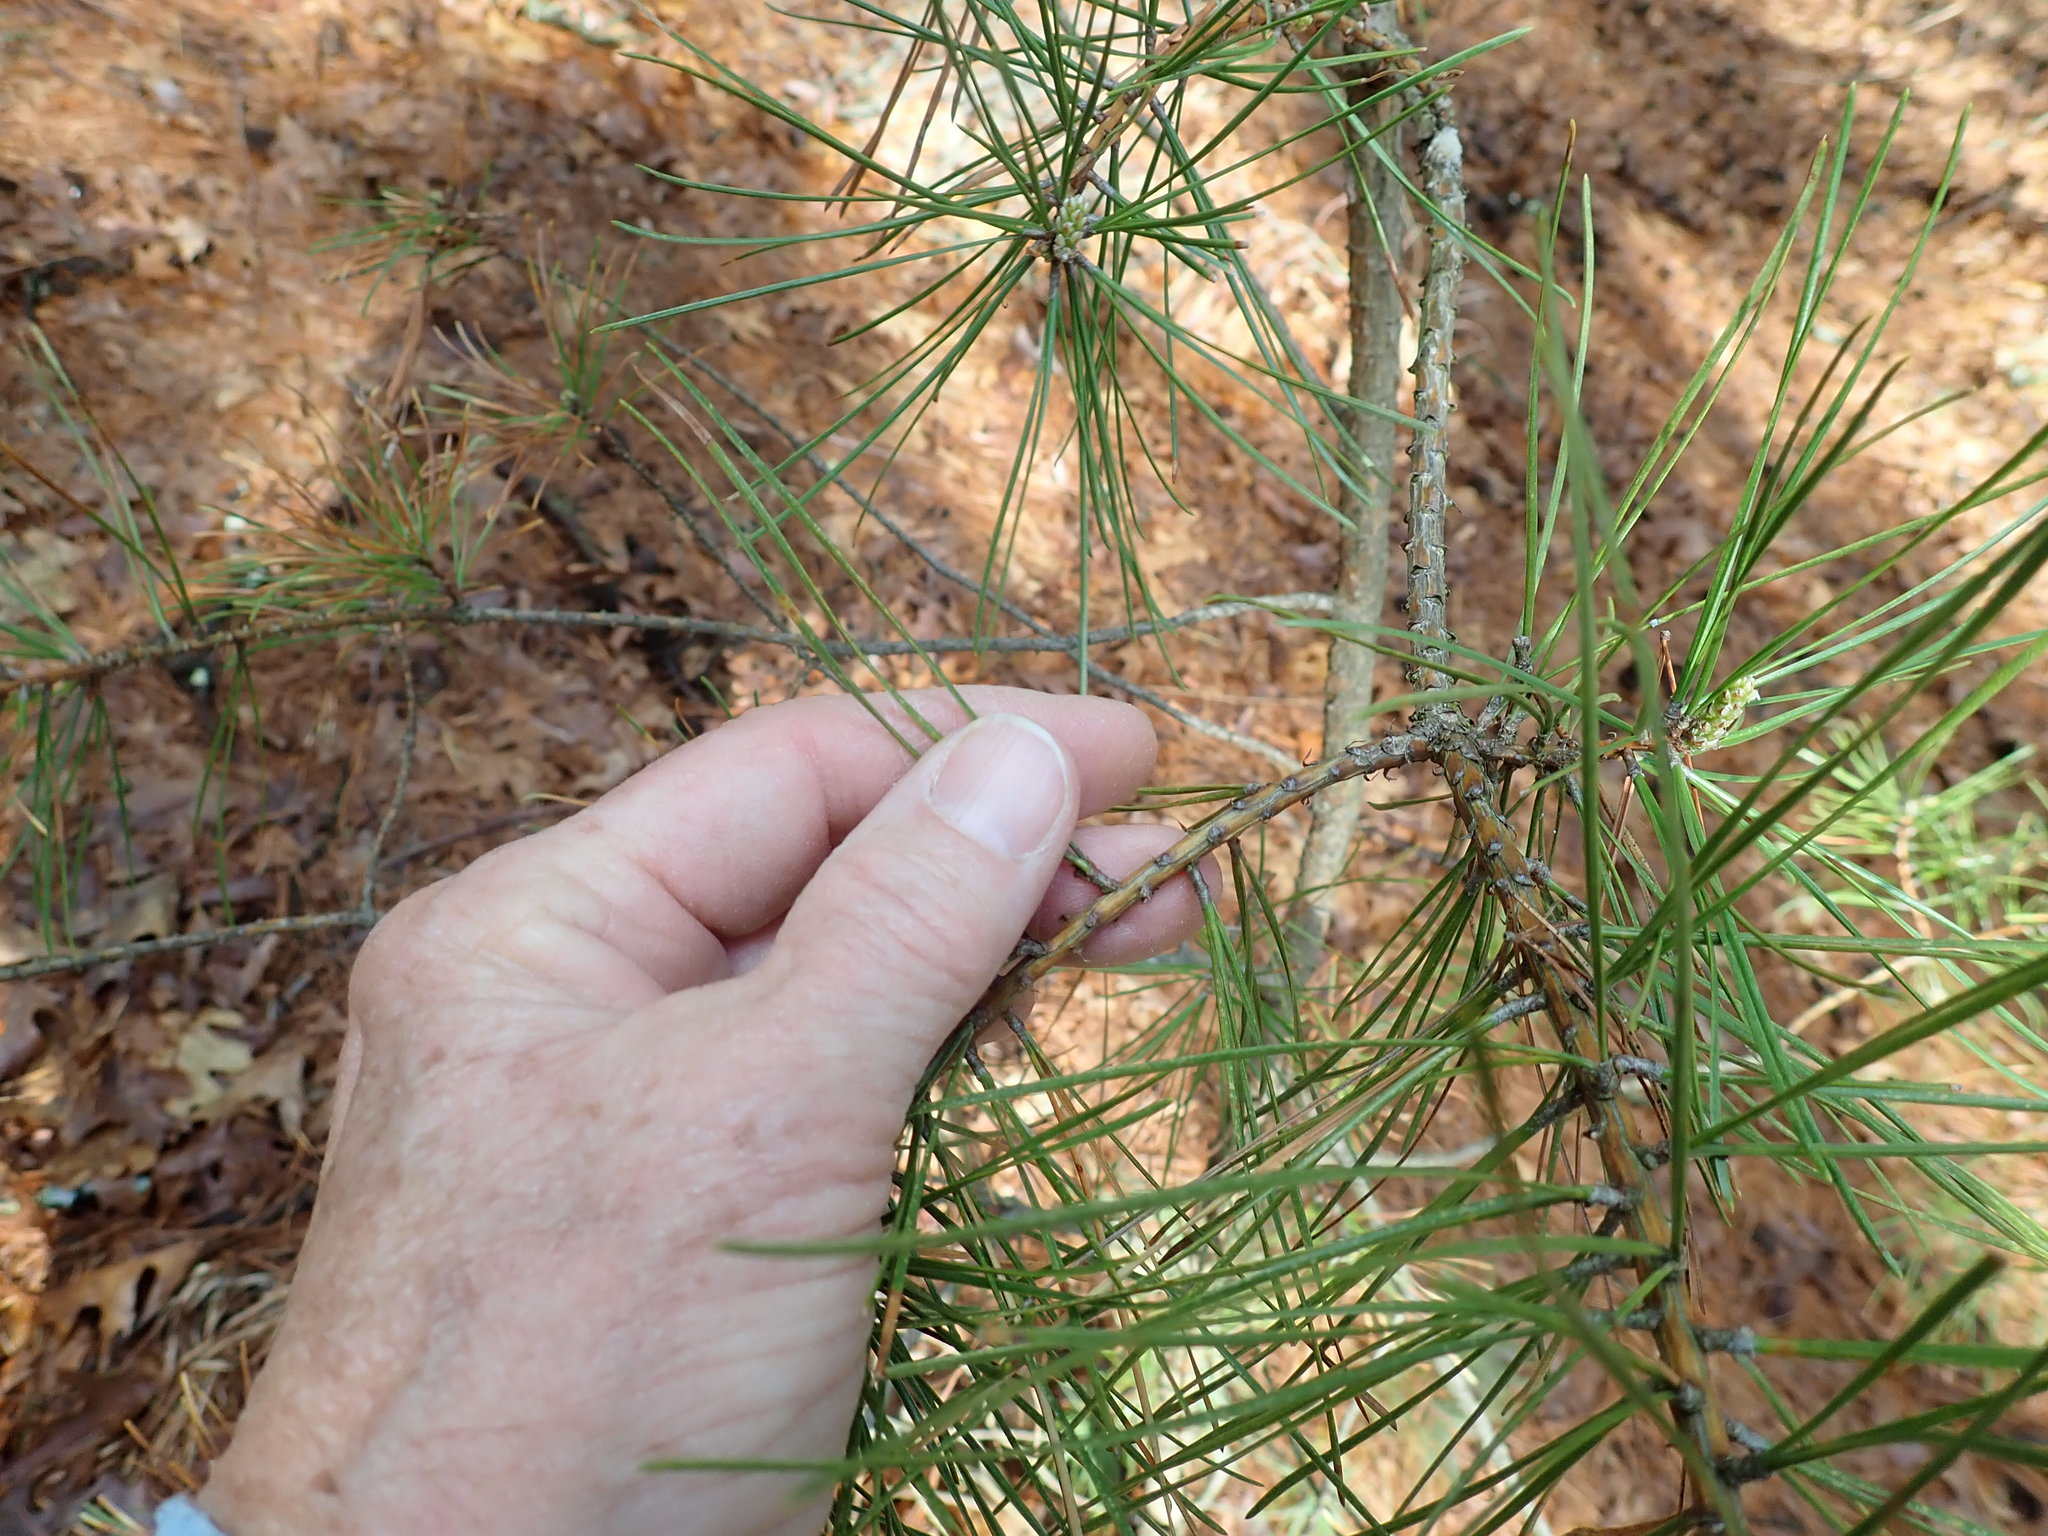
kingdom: Plantae
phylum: Tracheophyta
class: Pinopsida
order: Pinales
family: Pinaceae
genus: Pinus
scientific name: Pinus rigida
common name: Pitch pine
